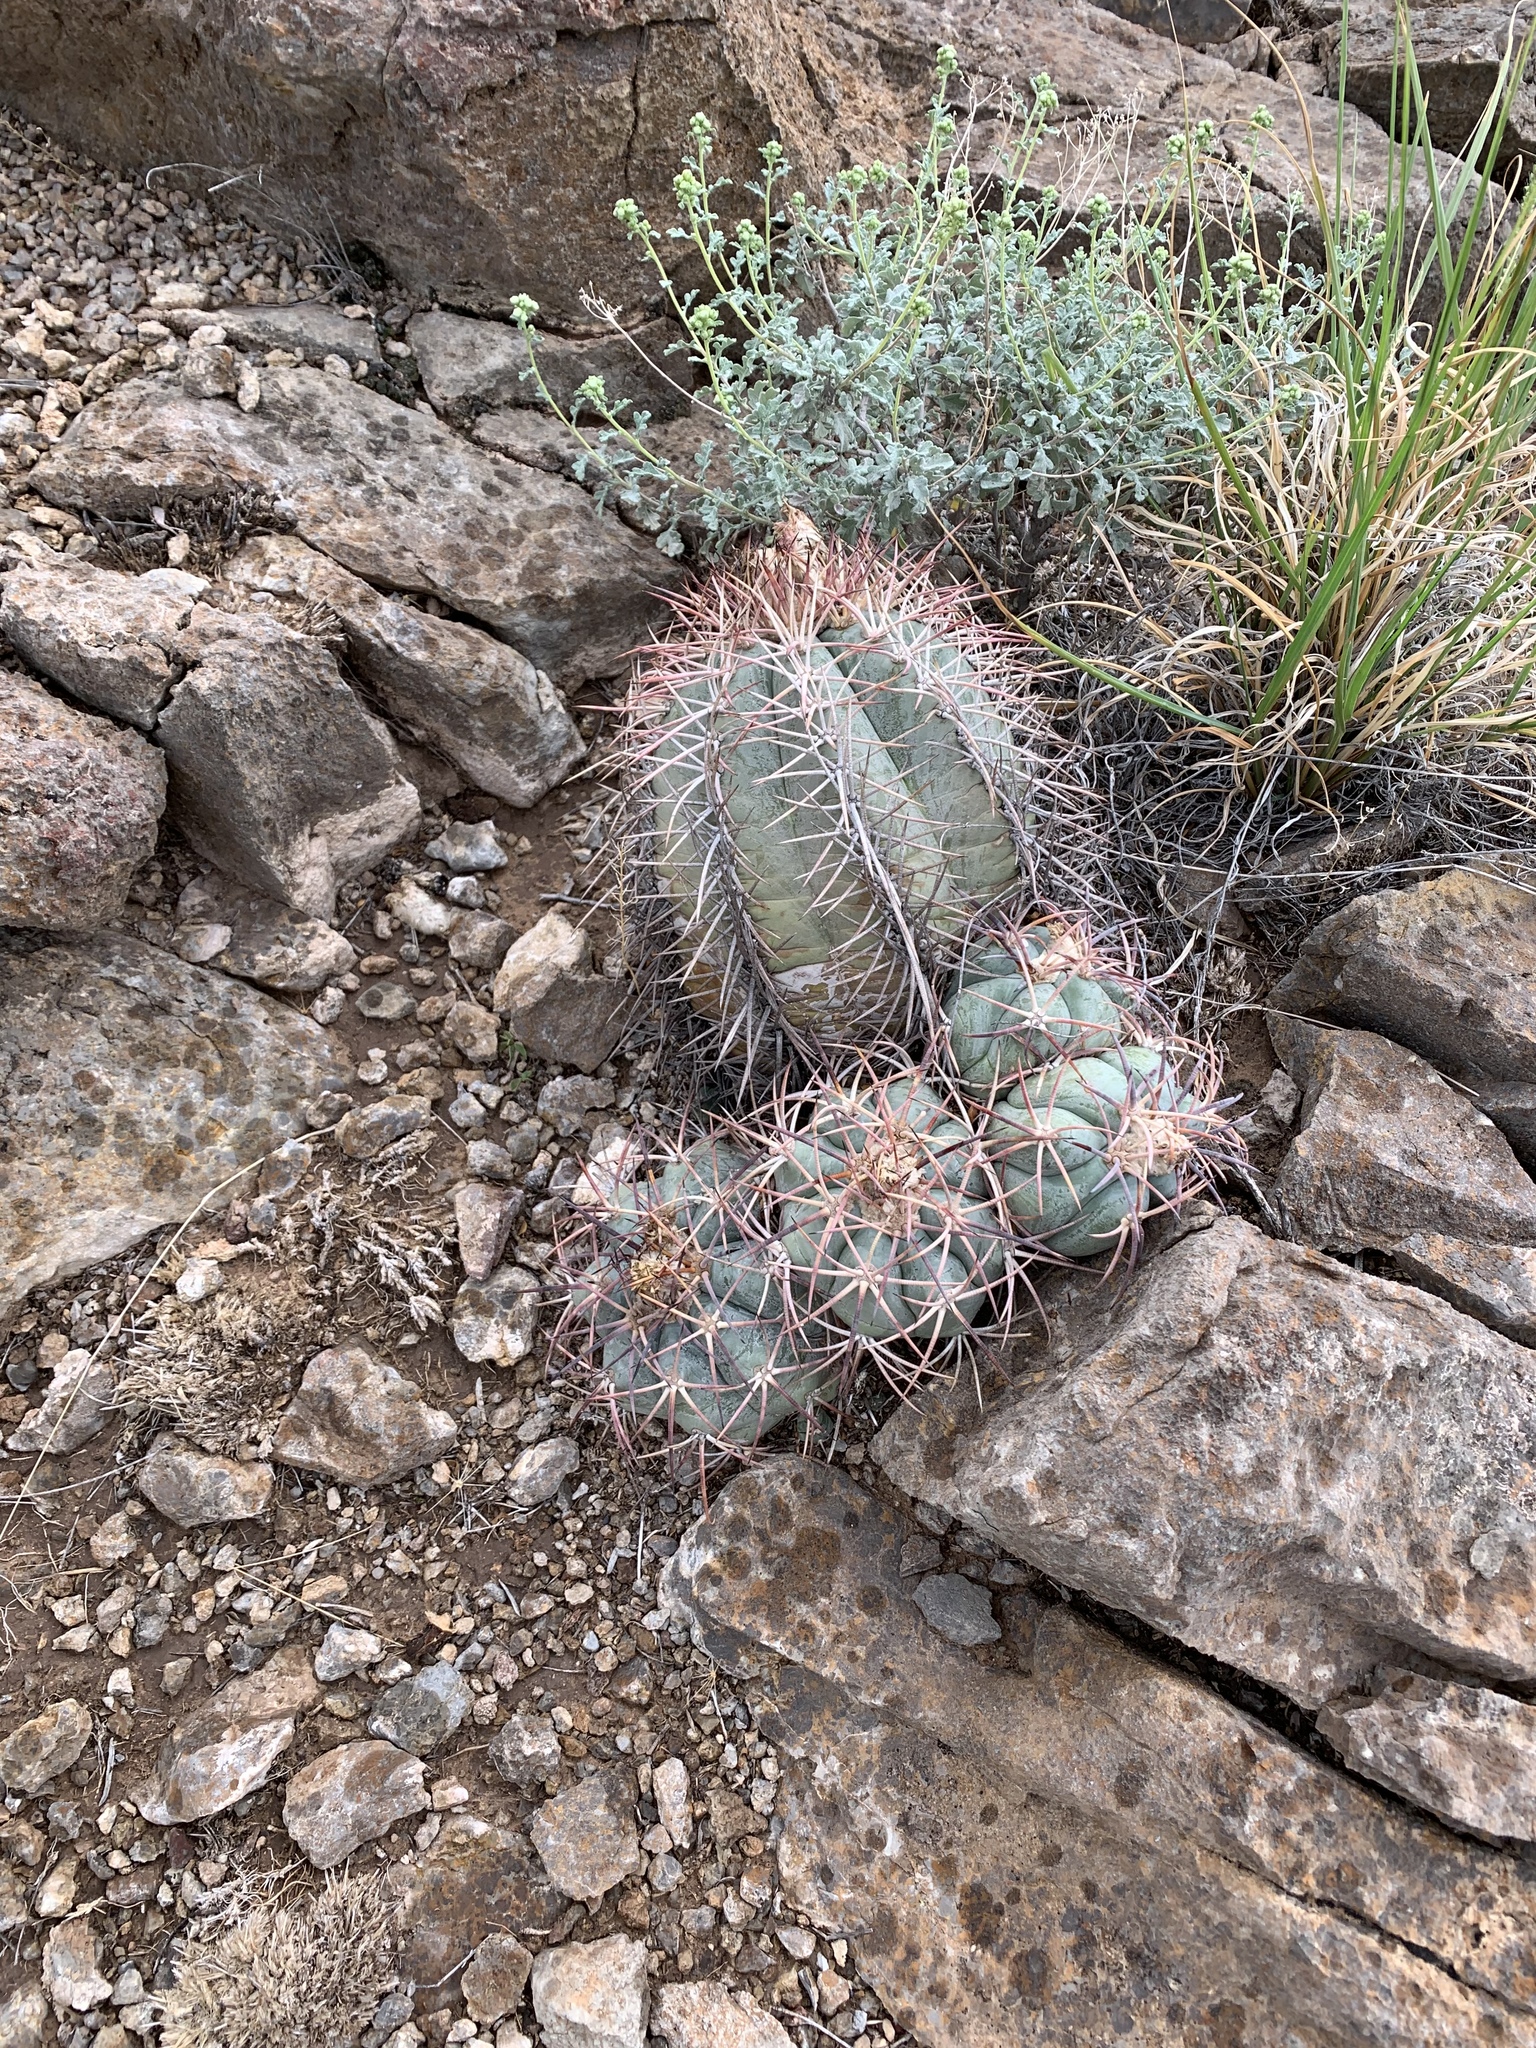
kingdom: Plantae
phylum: Tracheophyta
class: Magnoliopsida
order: Caryophyllales
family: Cactaceae
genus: Echinocactus
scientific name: Echinocactus horizonthalonius
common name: Devilshead
